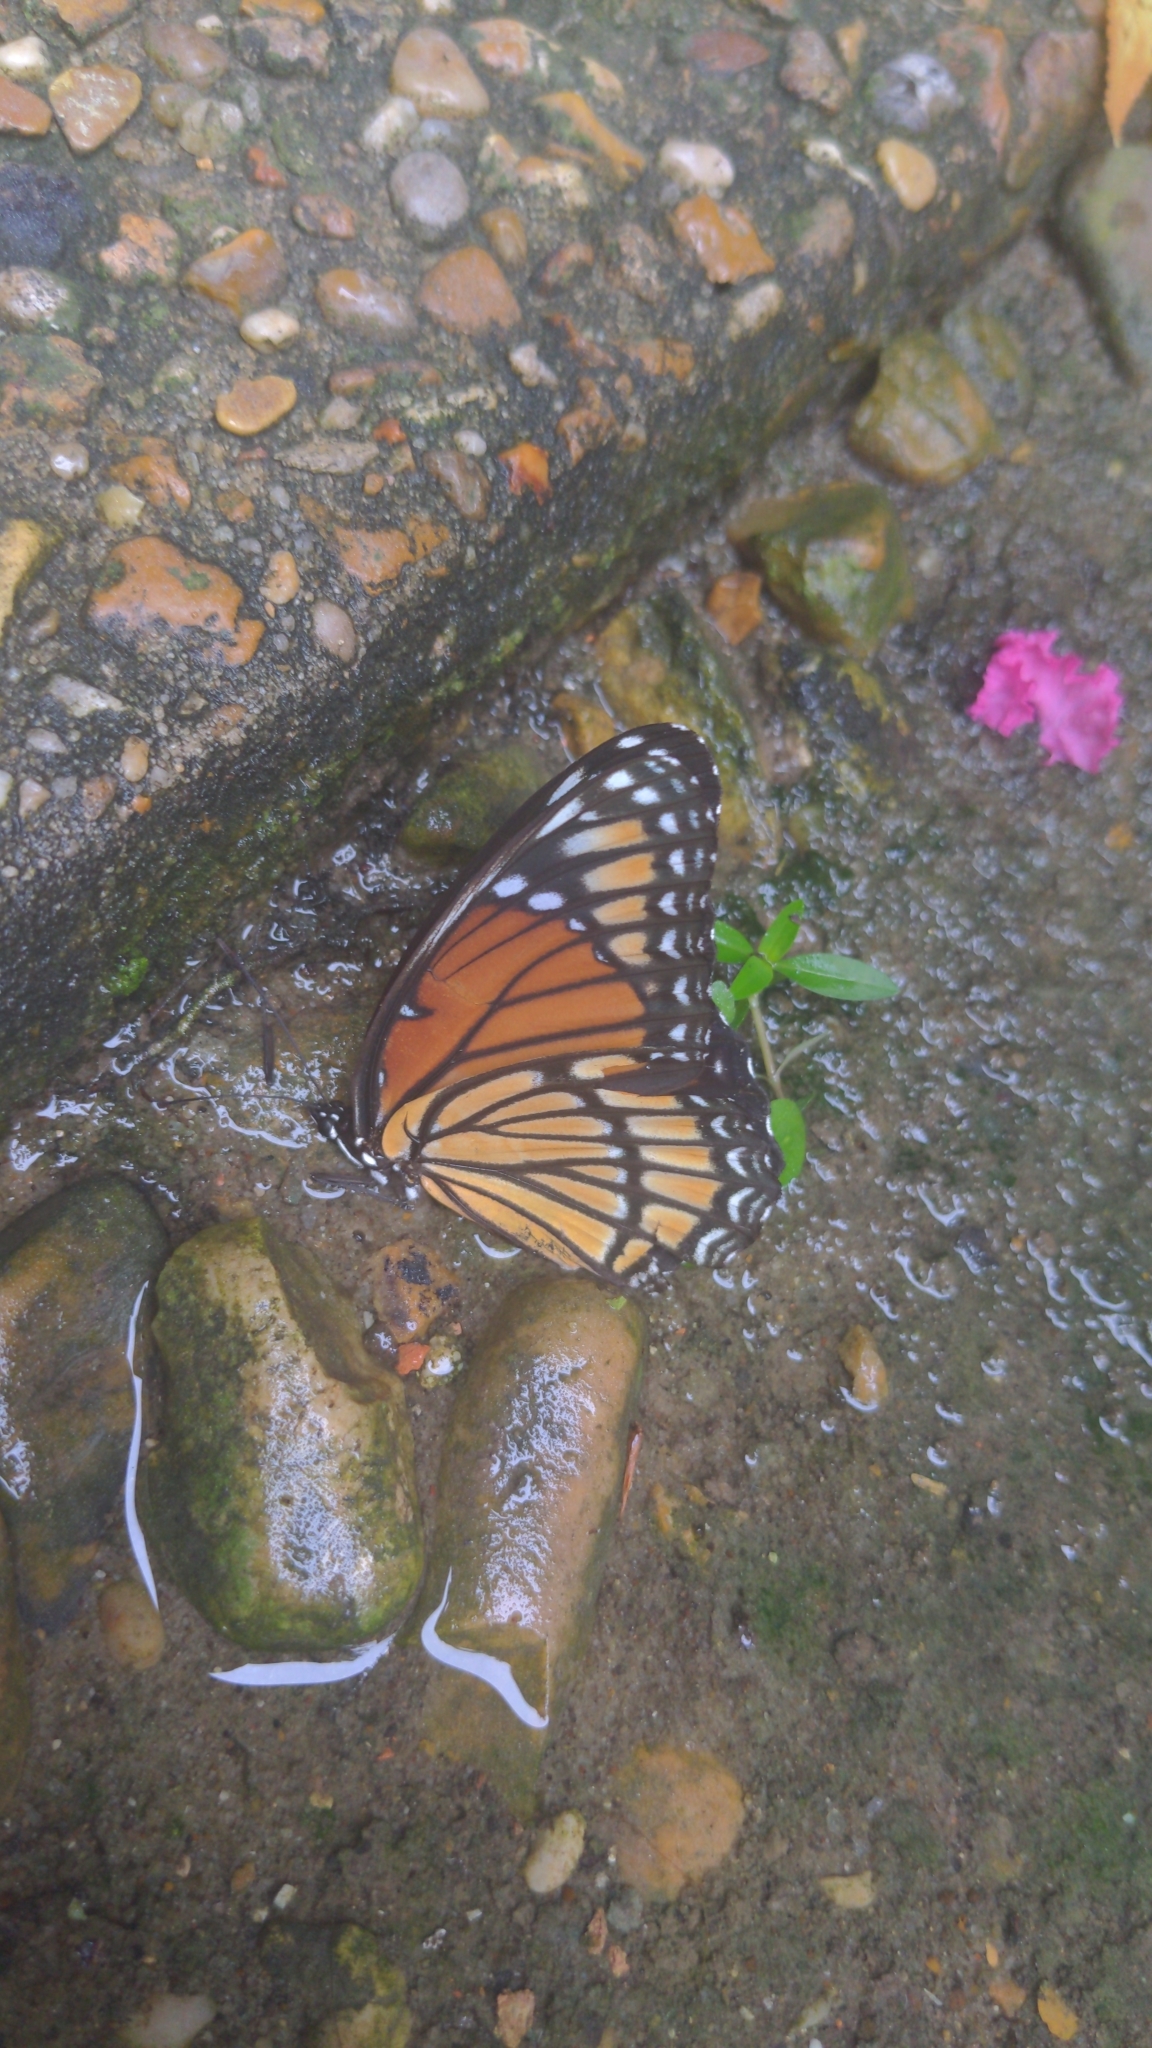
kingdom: Animalia
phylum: Arthropoda
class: Insecta
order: Lepidoptera
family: Nymphalidae
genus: Limenitis
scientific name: Limenitis archippus
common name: Viceroy
